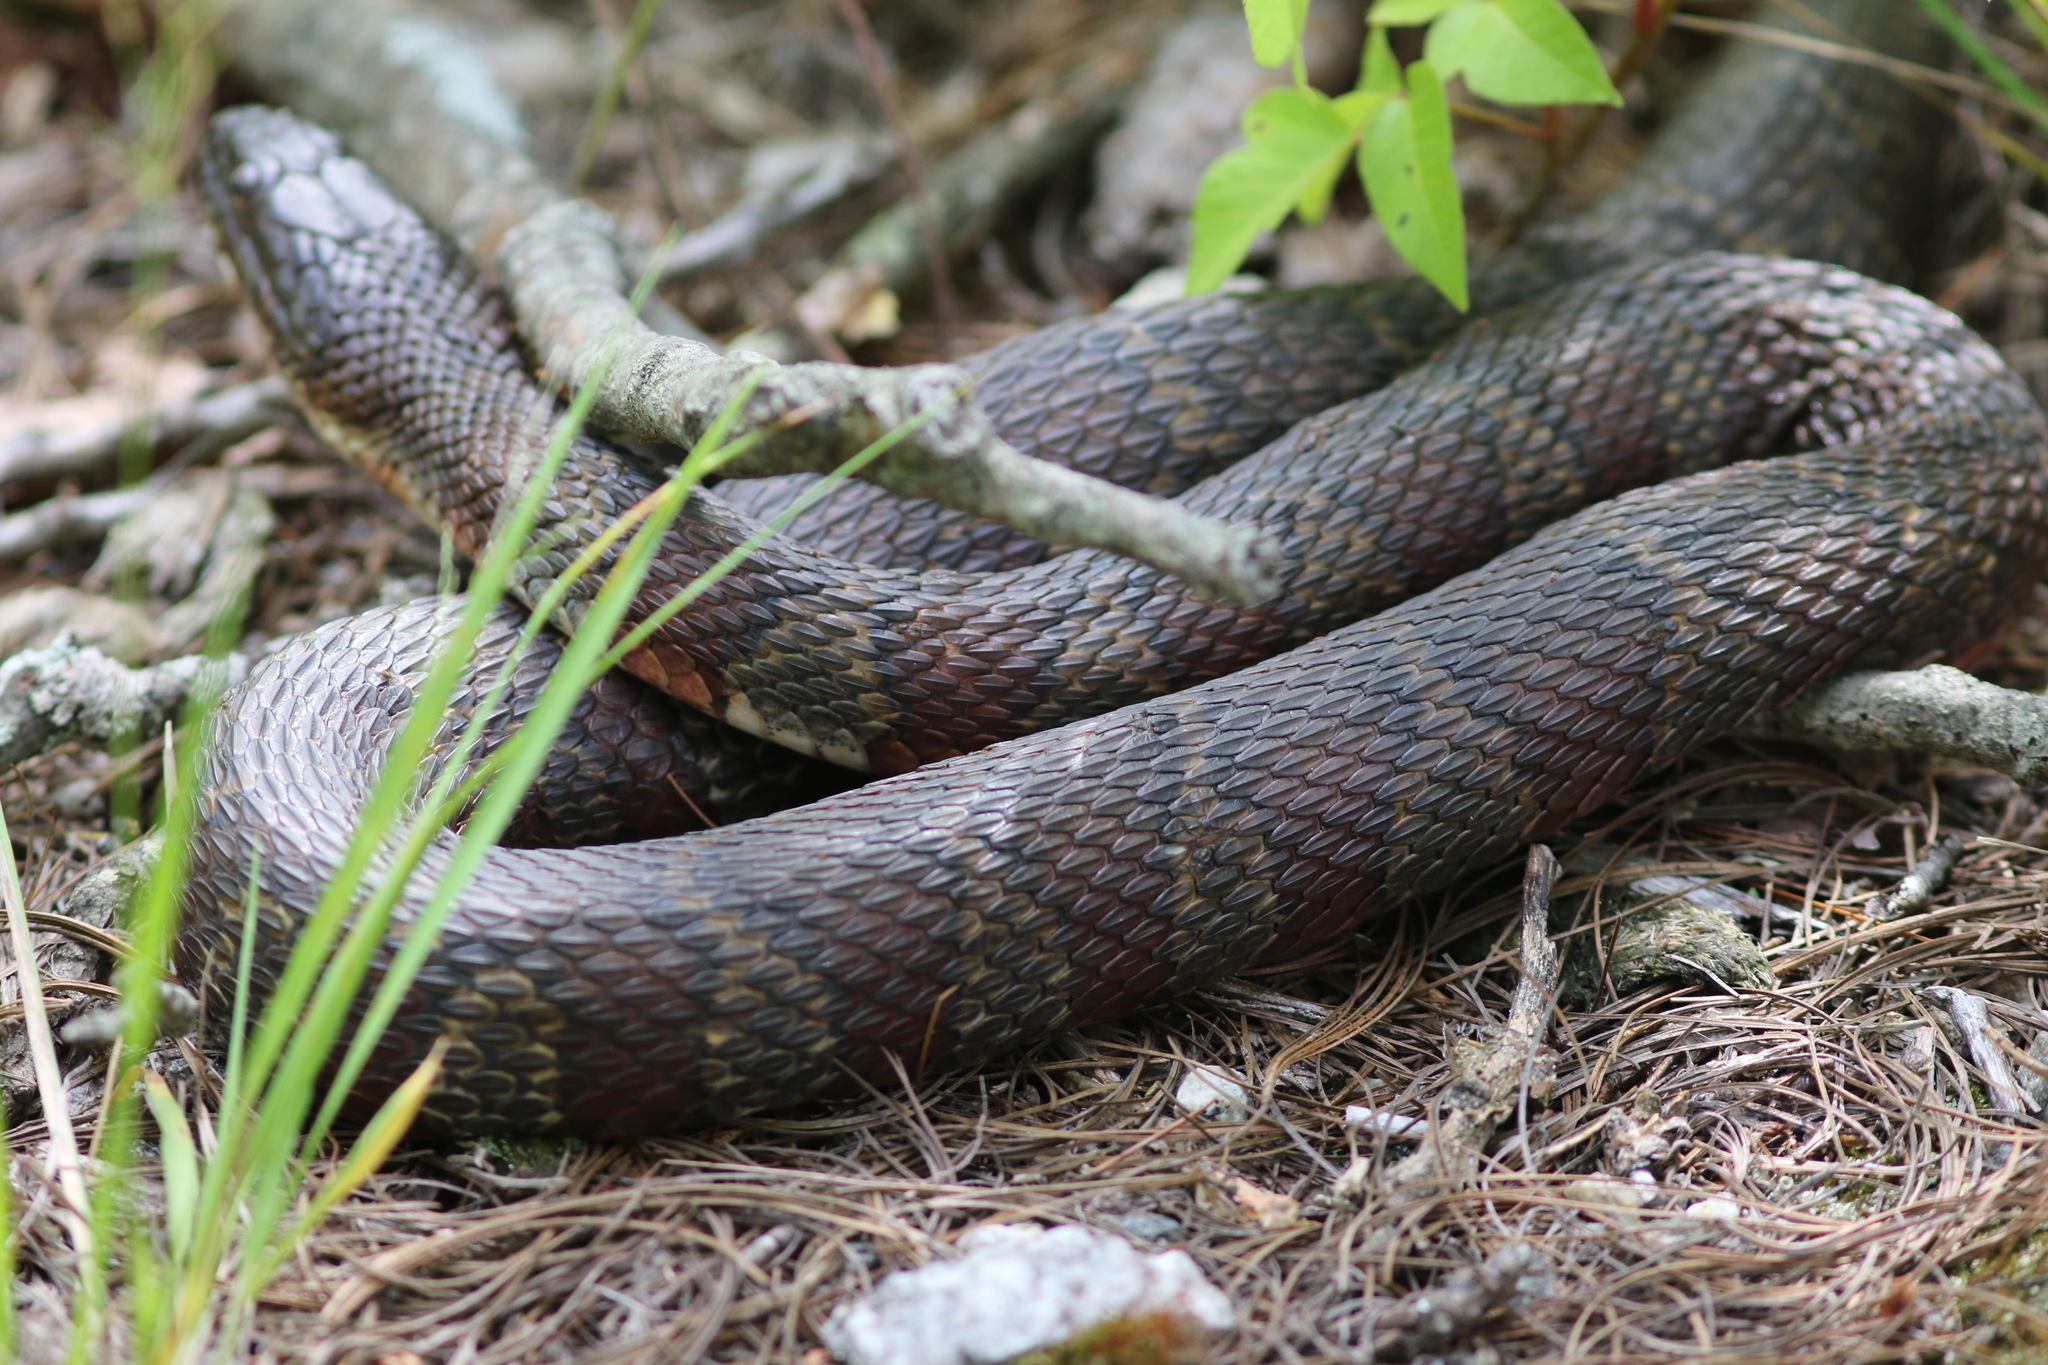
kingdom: Animalia
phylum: Chordata
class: Squamata
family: Colubridae
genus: Nerodia
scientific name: Nerodia sipedon
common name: Northern water snake
